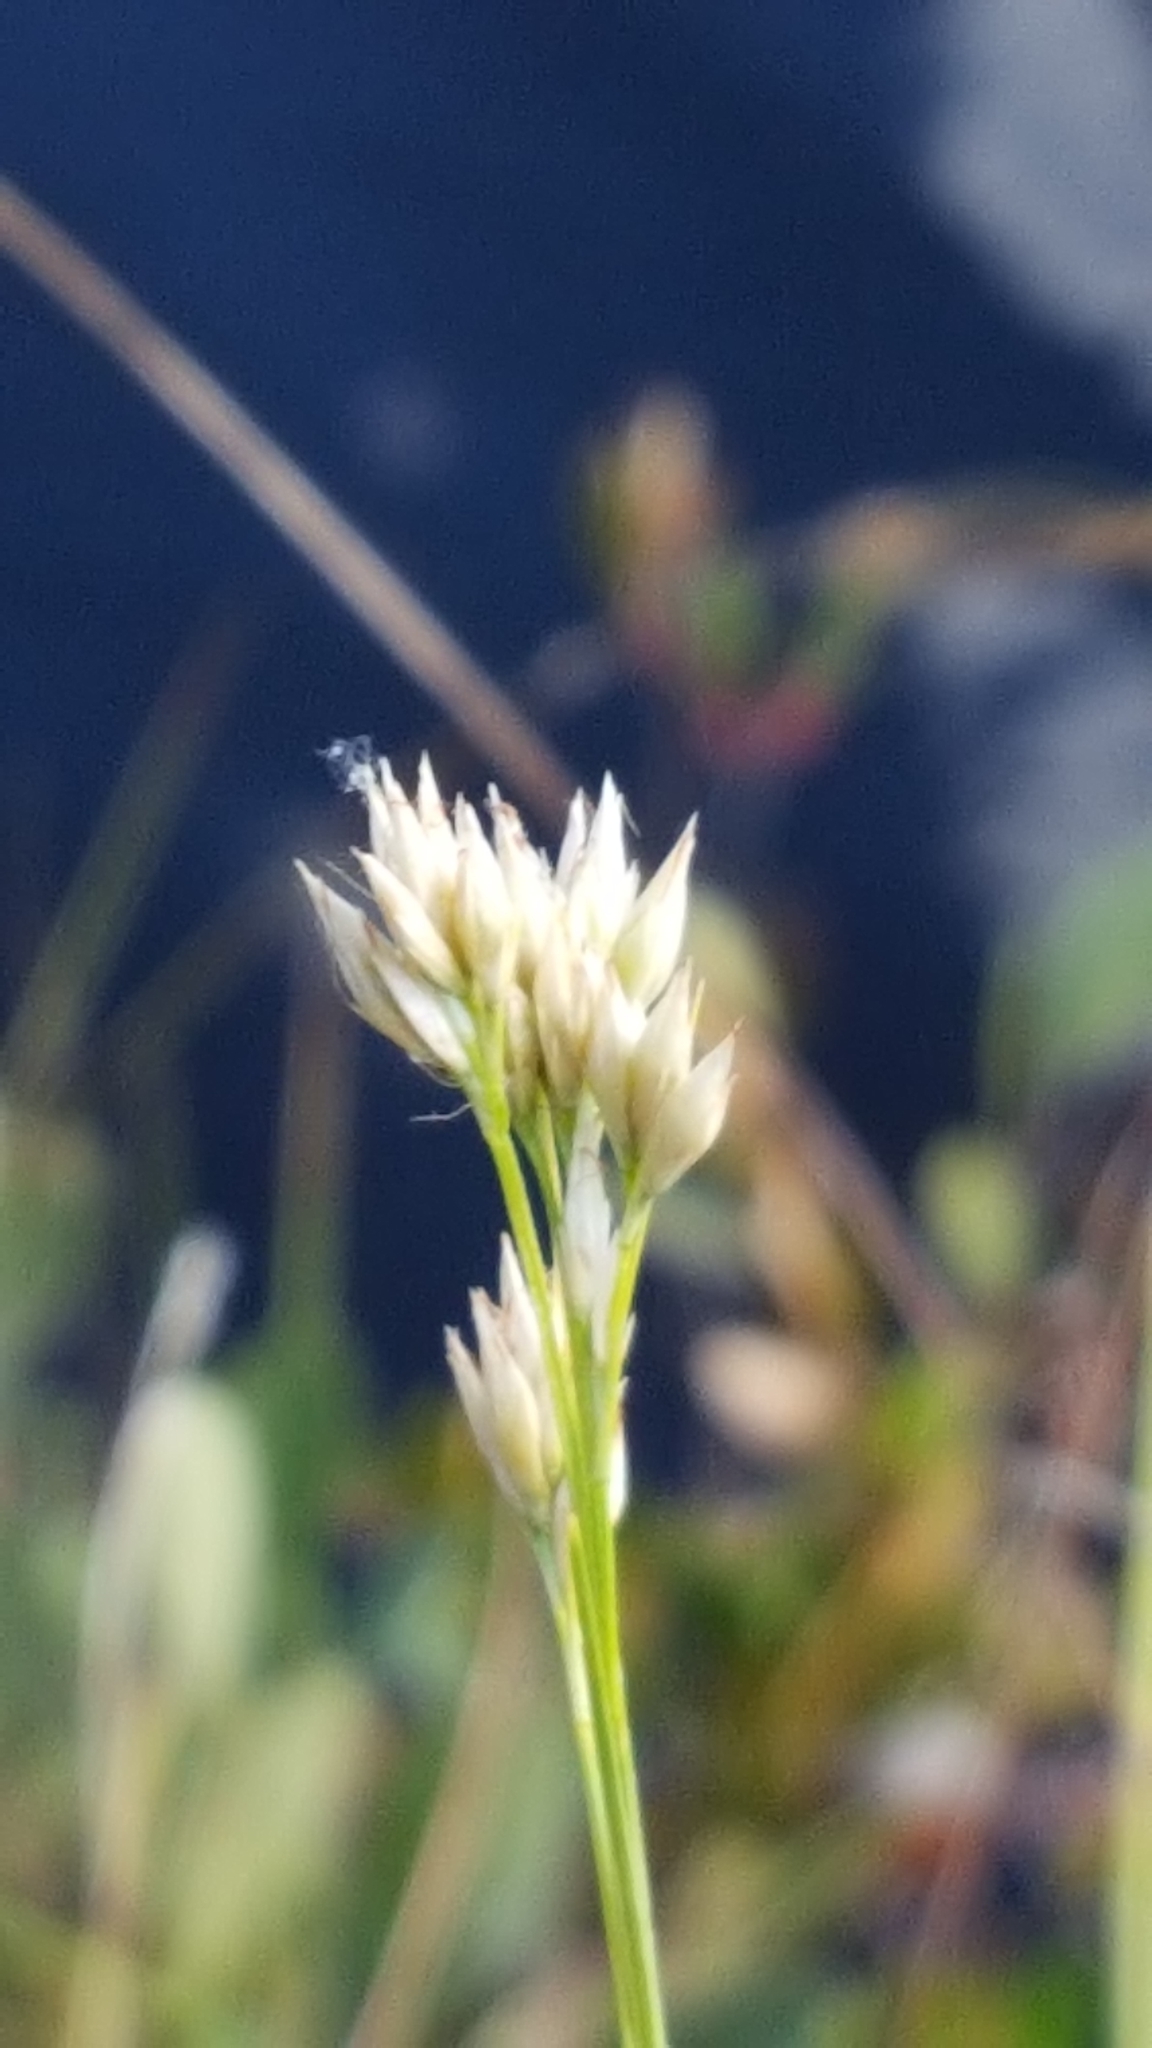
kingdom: Plantae
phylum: Tracheophyta
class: Liliopsida
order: Poales
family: Cyperaceae
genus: Rhynchospora
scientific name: Rhynchospora alba
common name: White beak-sedge
